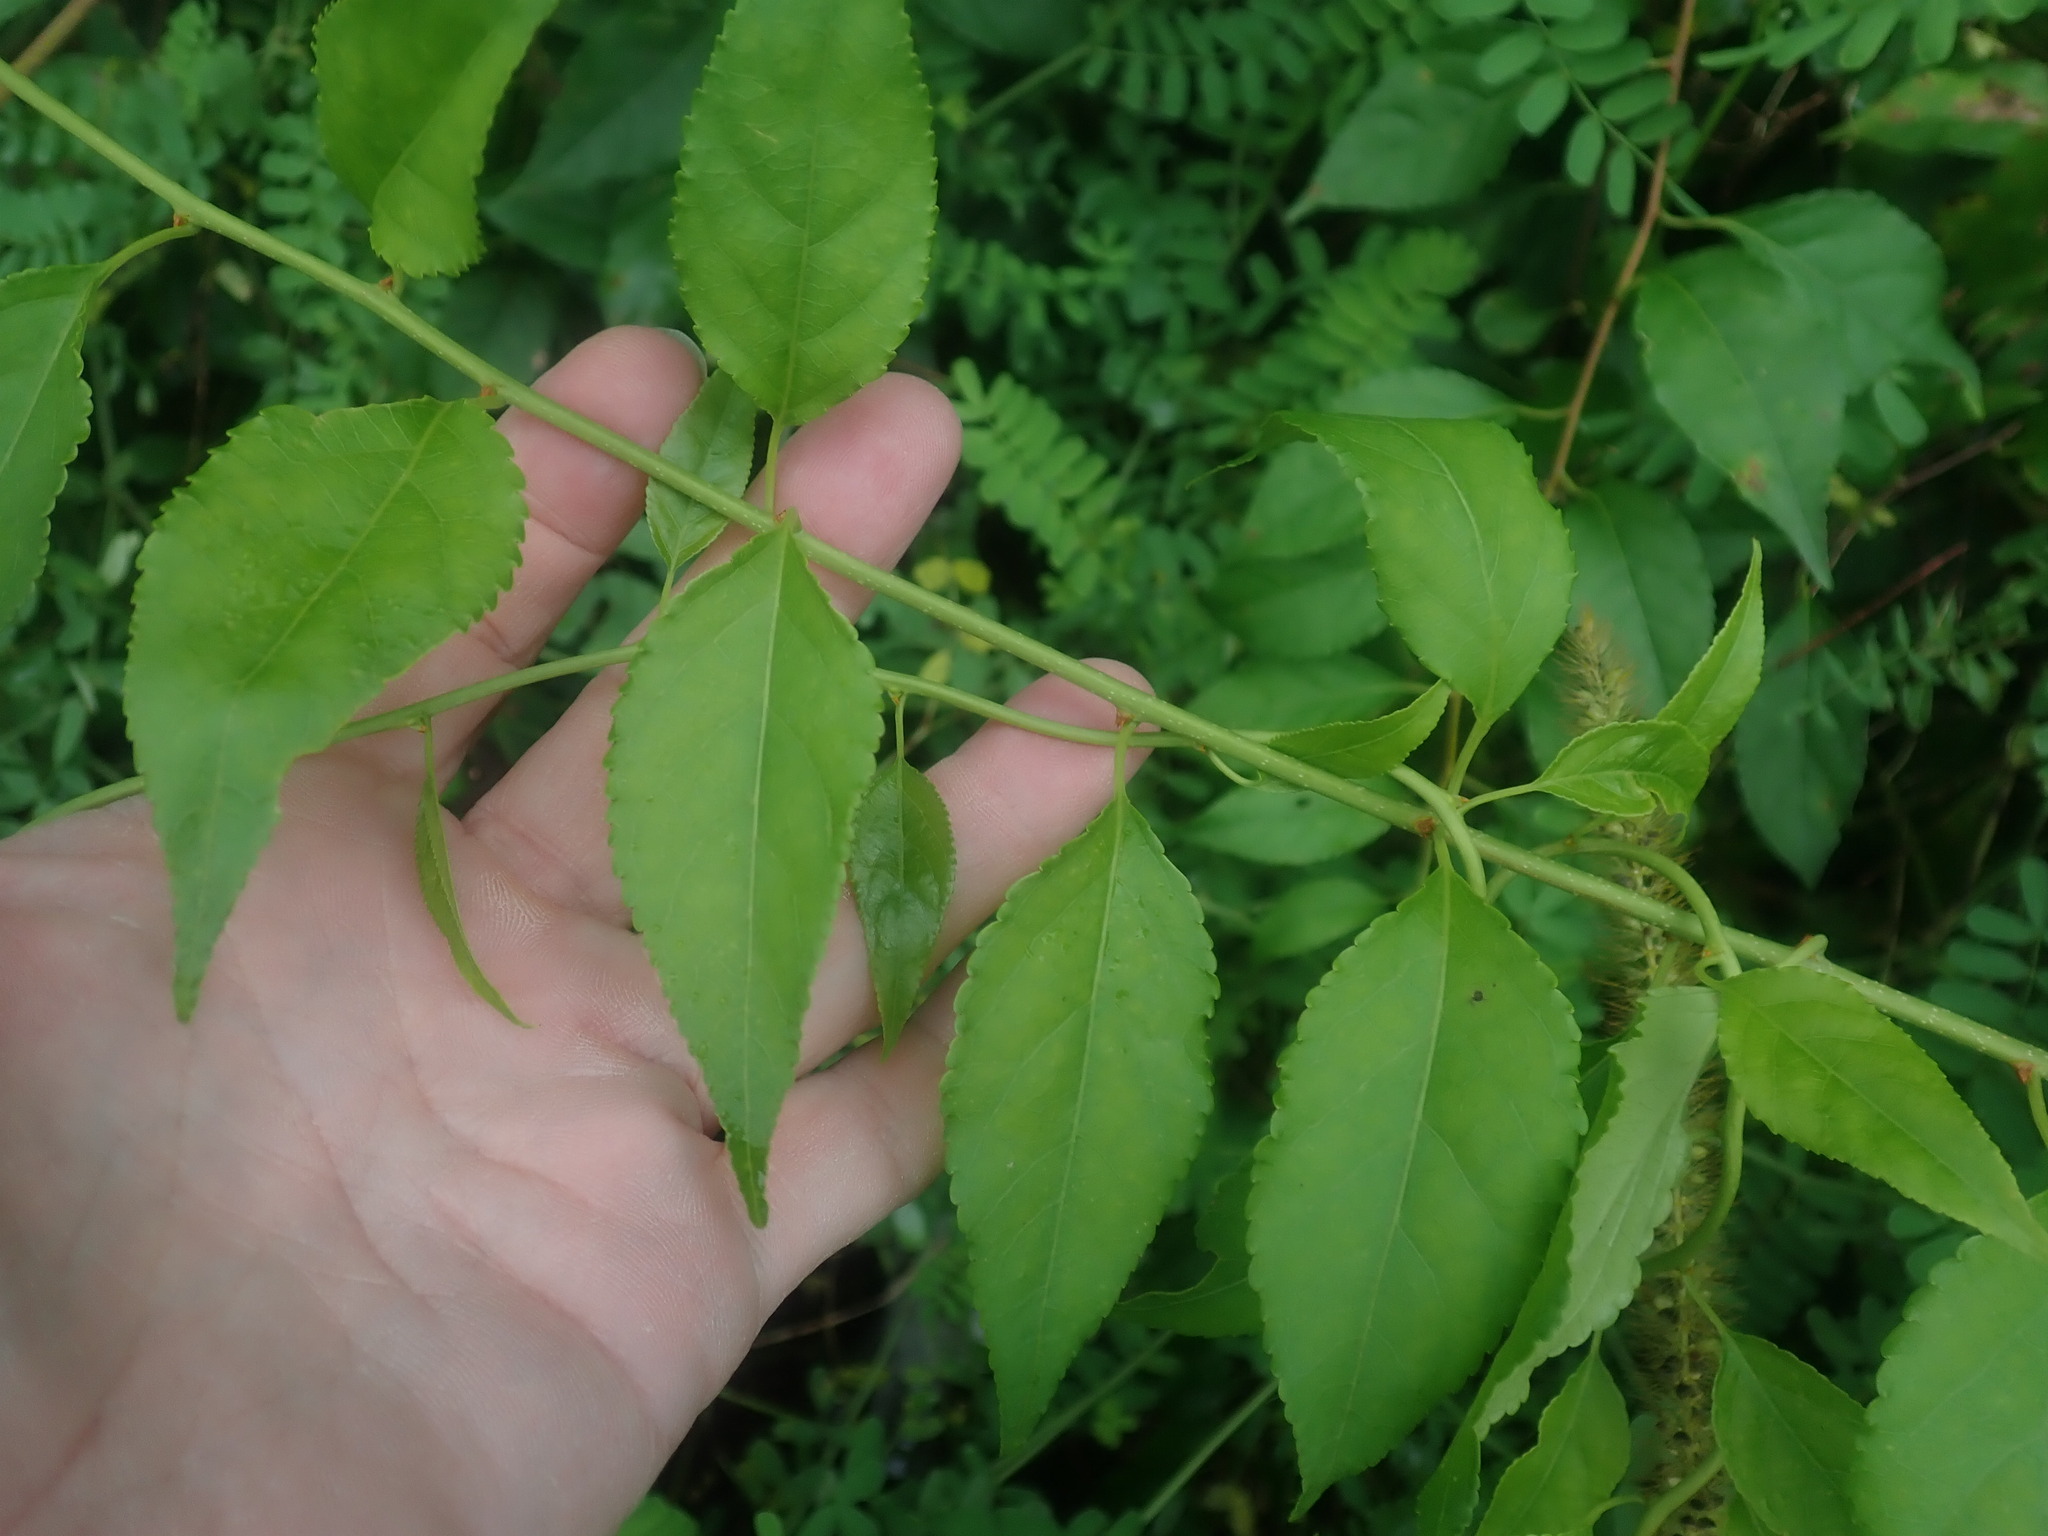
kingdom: Plantae
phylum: Tracheophyta
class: Magnoliopsida
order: Celastrales
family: Celastraceae
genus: Celastrus
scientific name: Celastrus orbiculatus
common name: Oriental bittersweet
